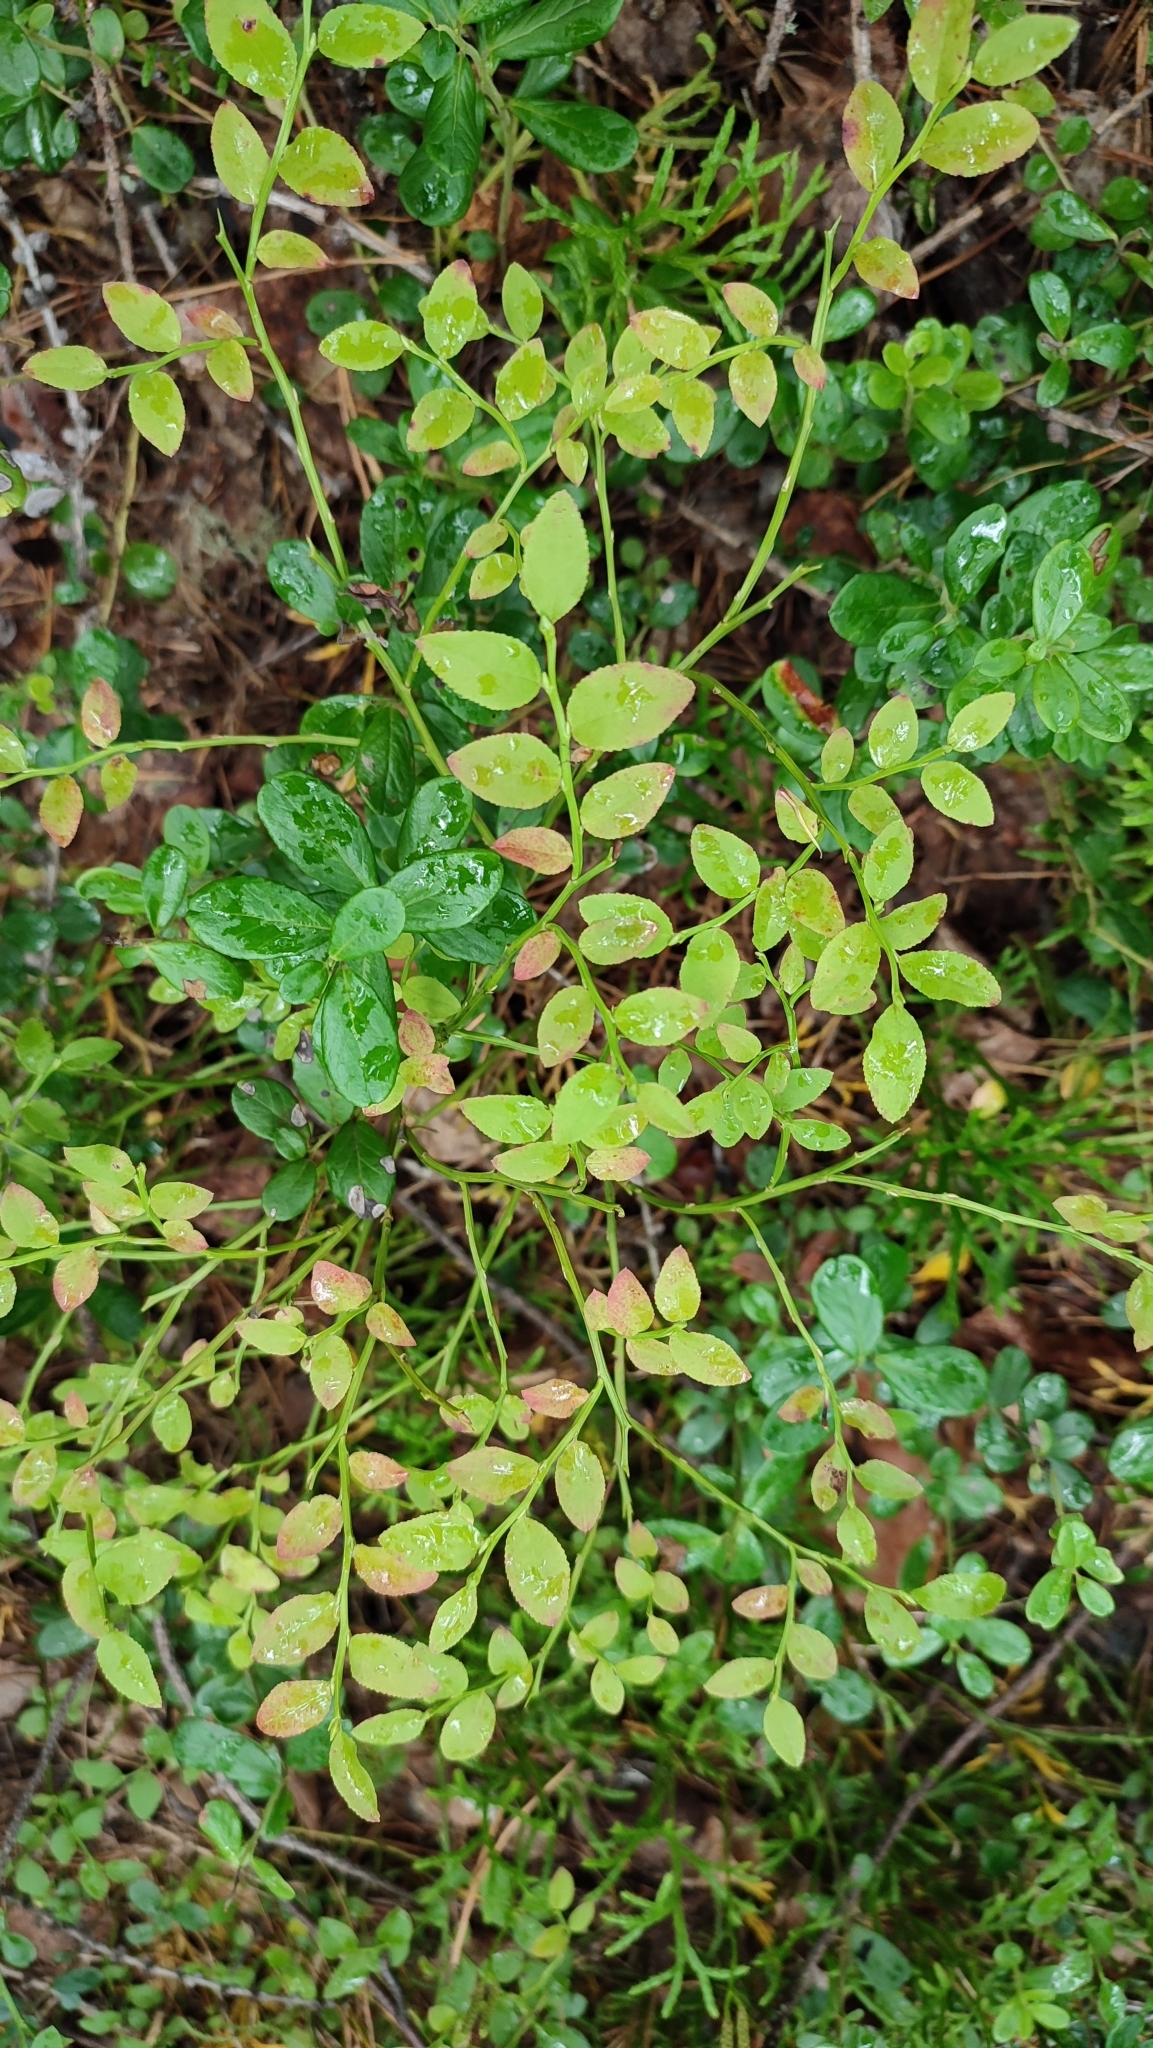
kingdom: Plantae
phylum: Tracheophyta
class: Magnoliopsida
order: Ericales
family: Ericaceae
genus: Vaccinium
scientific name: Vaccinium myrtillus
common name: Bilberry
